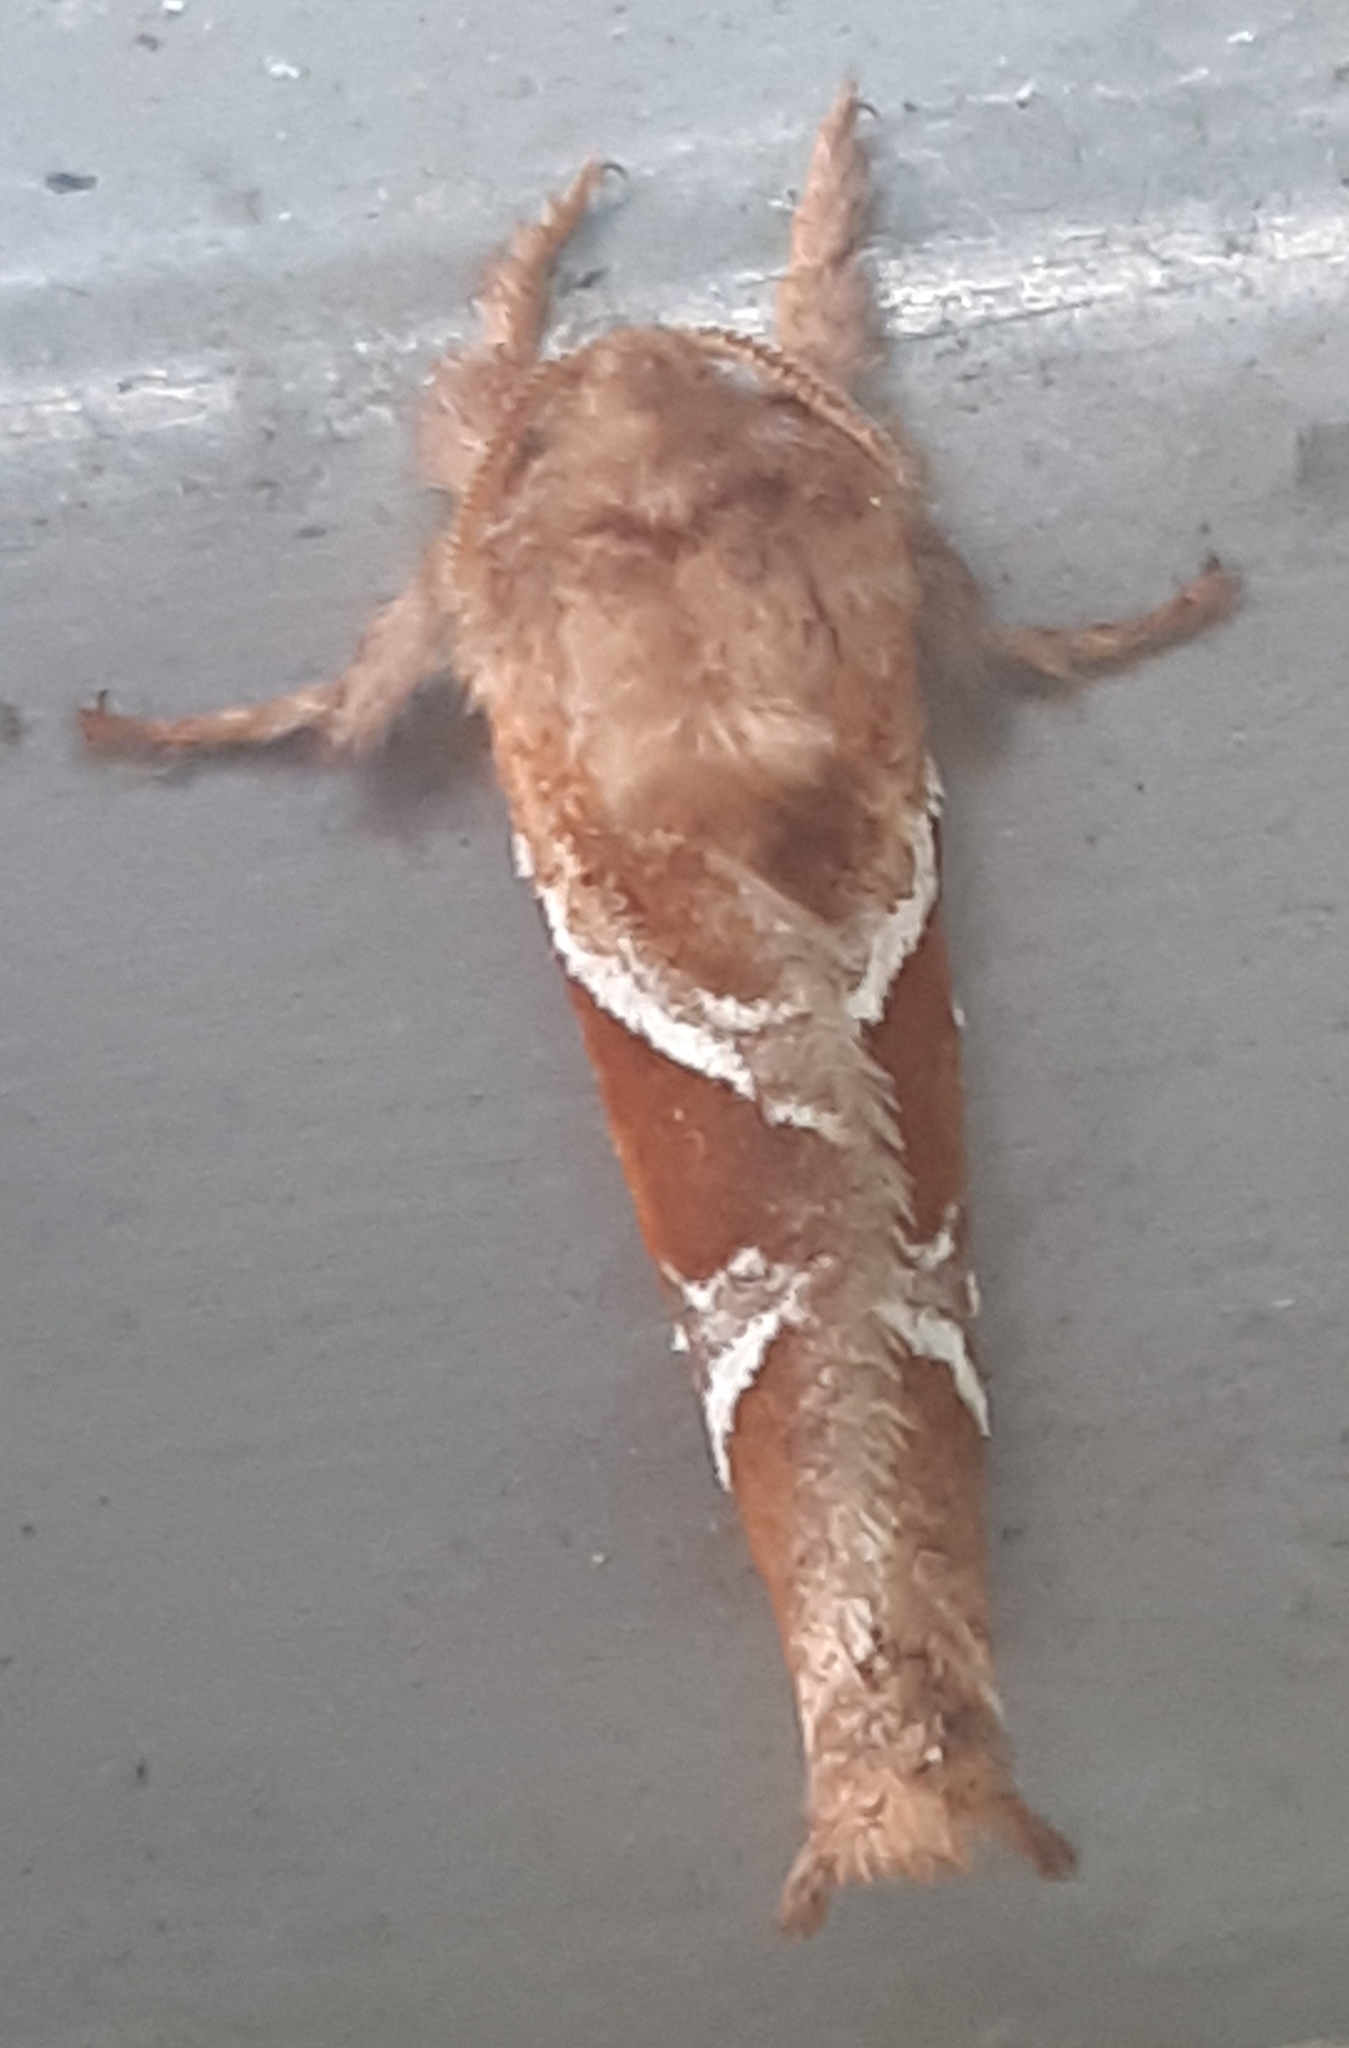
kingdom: Animalia
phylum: Arthropoda
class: Insecta
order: Lepidoptera
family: Hepialidae
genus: Triodia
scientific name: Triodia sylvina
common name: Orange swift
